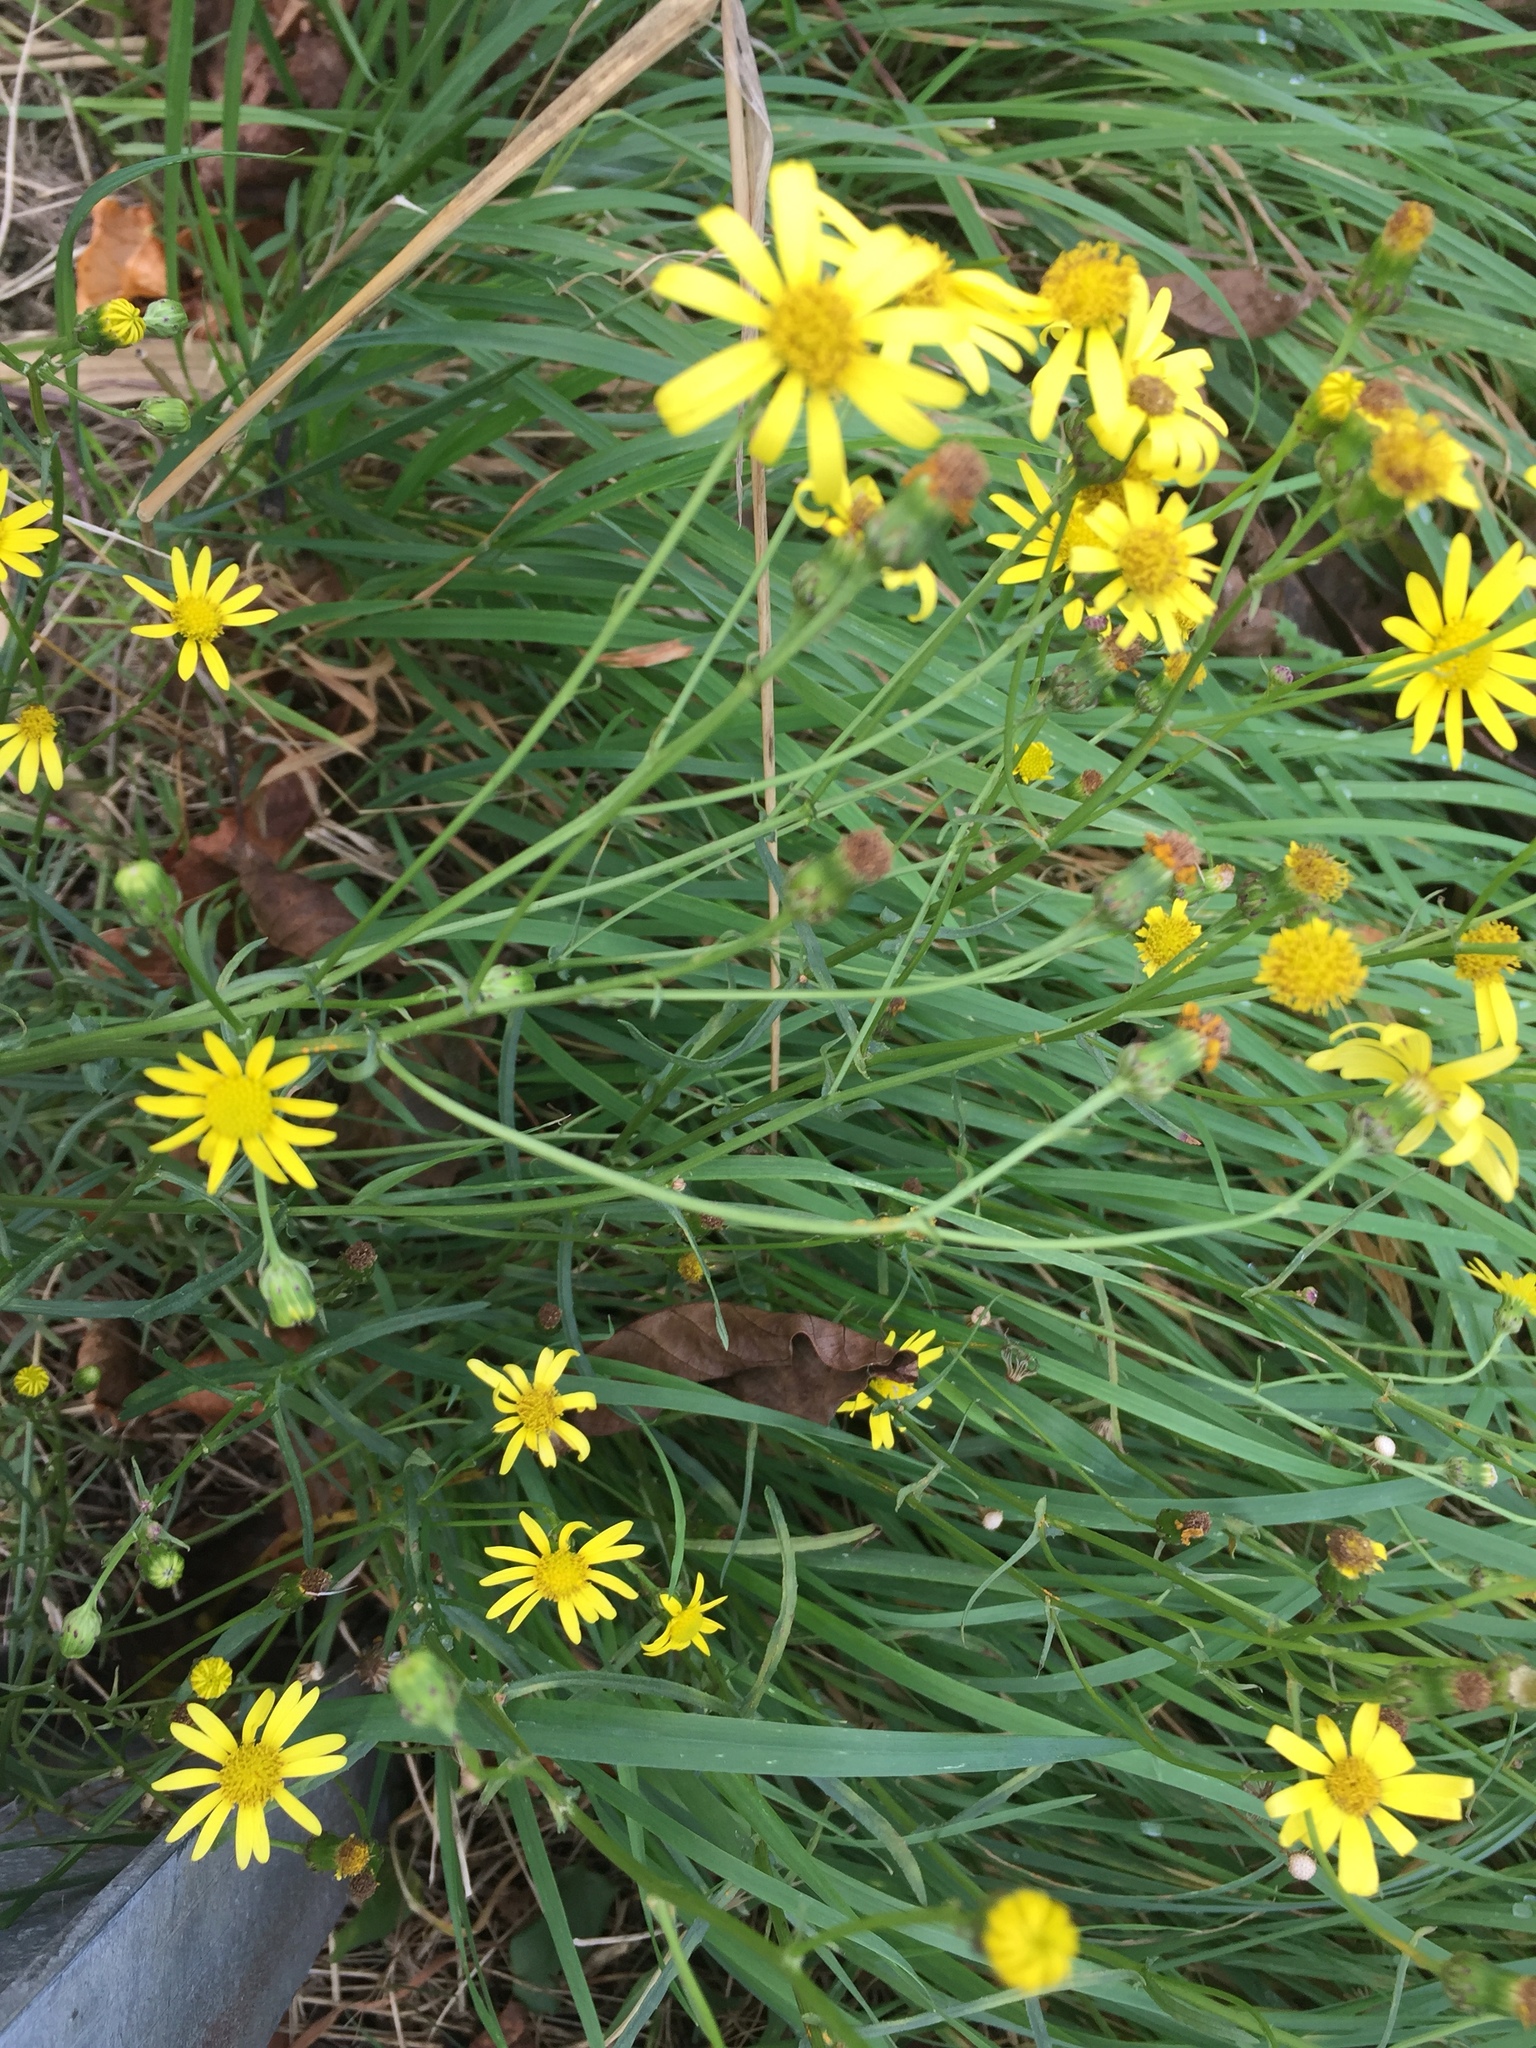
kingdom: Plantae
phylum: Tracheophyta
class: Magnoliopsida
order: Asterales
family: Asteraceae
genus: Senecio
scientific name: Senecio inaequidens
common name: Narrow-leaved ragwort
